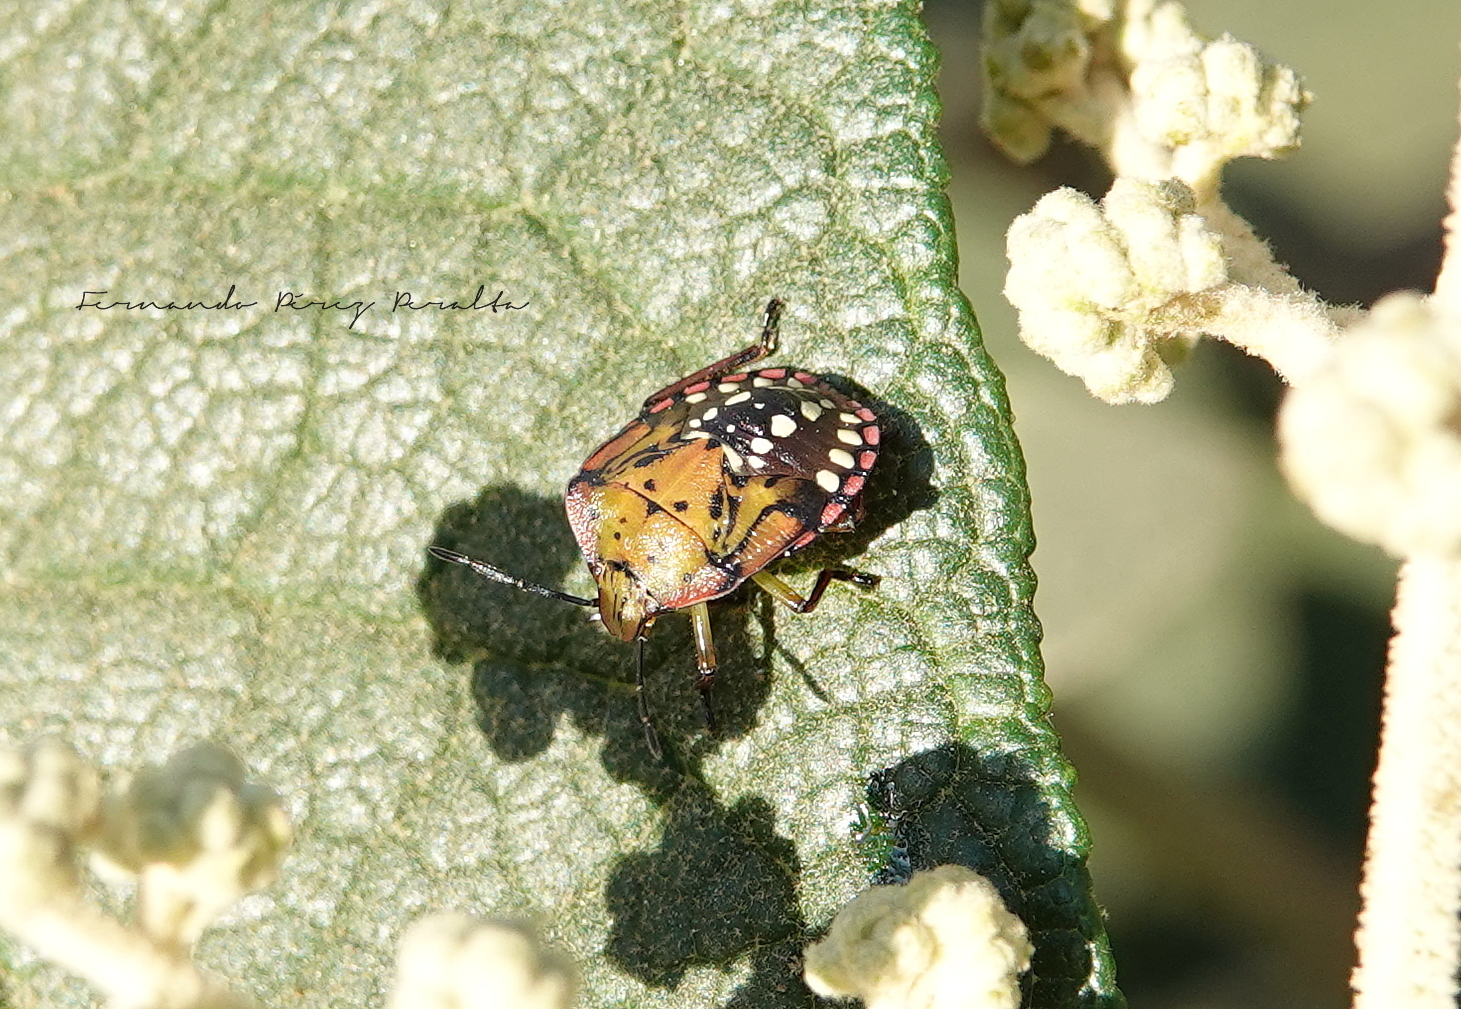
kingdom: Animalia
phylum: Arthropoda
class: Insecta
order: Hemiptera
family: Pentatomidae
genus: Nezara
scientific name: Nezara viridula
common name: Southern green stink bug
